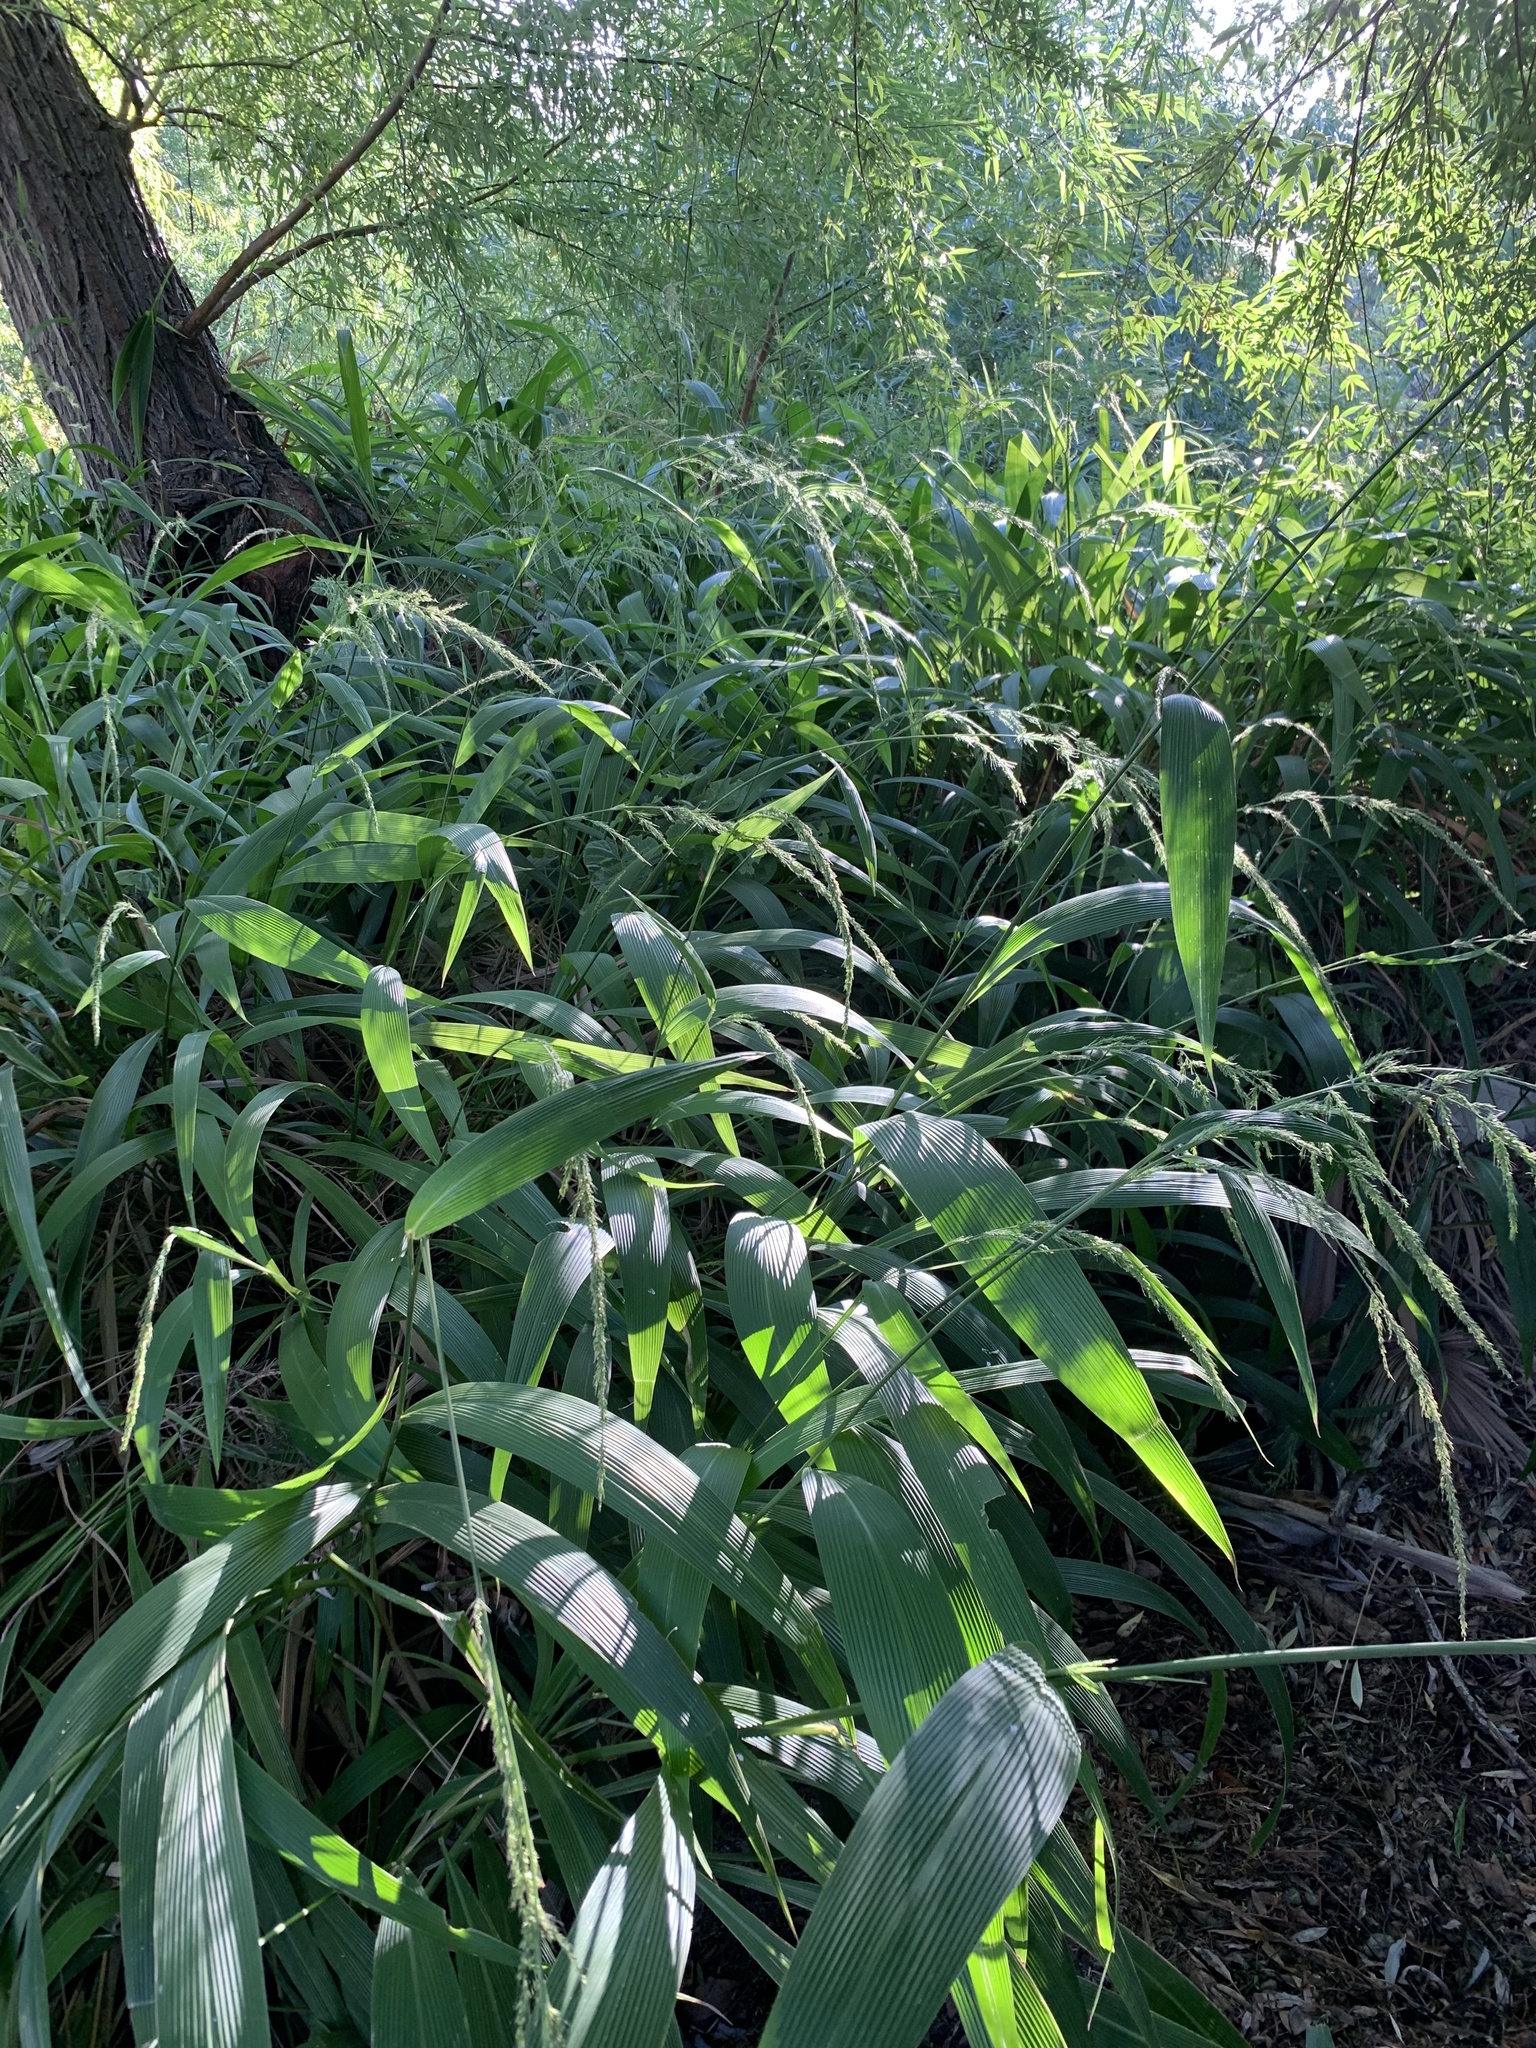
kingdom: Plantae
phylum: Tracheophyta
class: Liliopsida
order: Poales
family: Poaceae
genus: Setaria
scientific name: Setaria megaphylla
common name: Bigleaf bristlegrass
